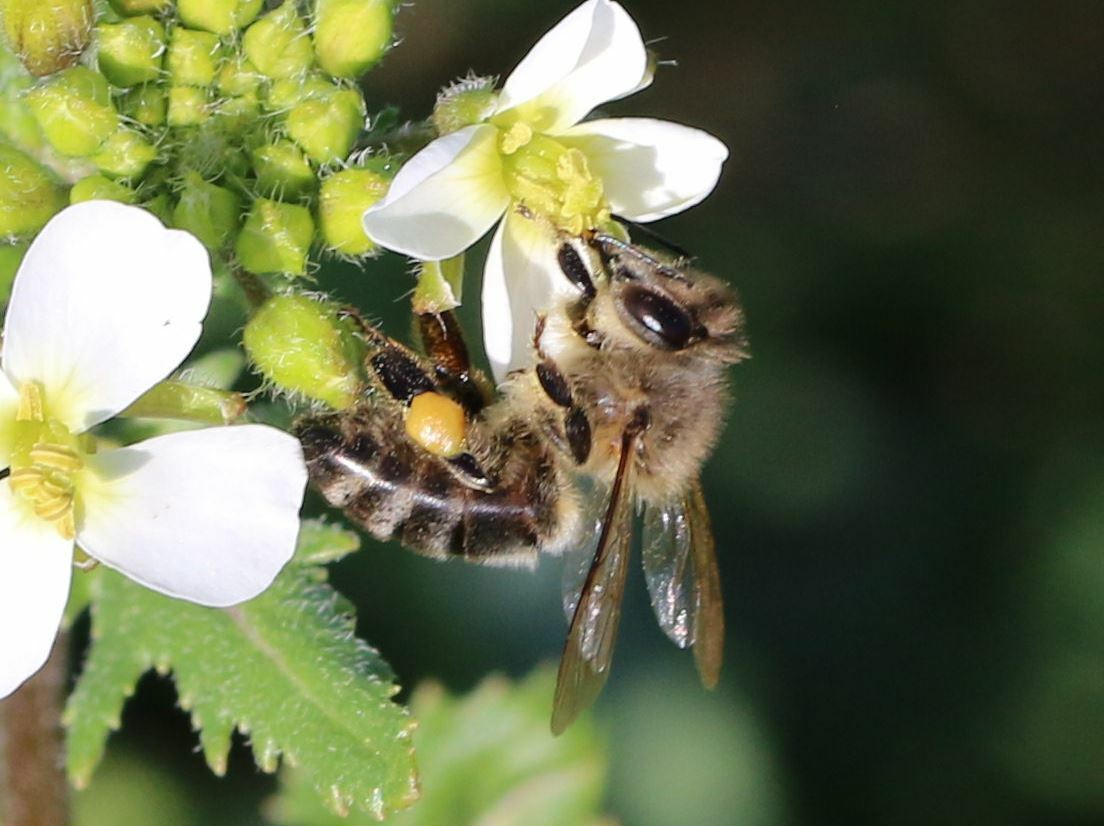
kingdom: Animalia
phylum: Arthropoda
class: Insecta
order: Hymenoptera
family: Apidae
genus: Apis
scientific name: Apis mellifera
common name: Honey bee
